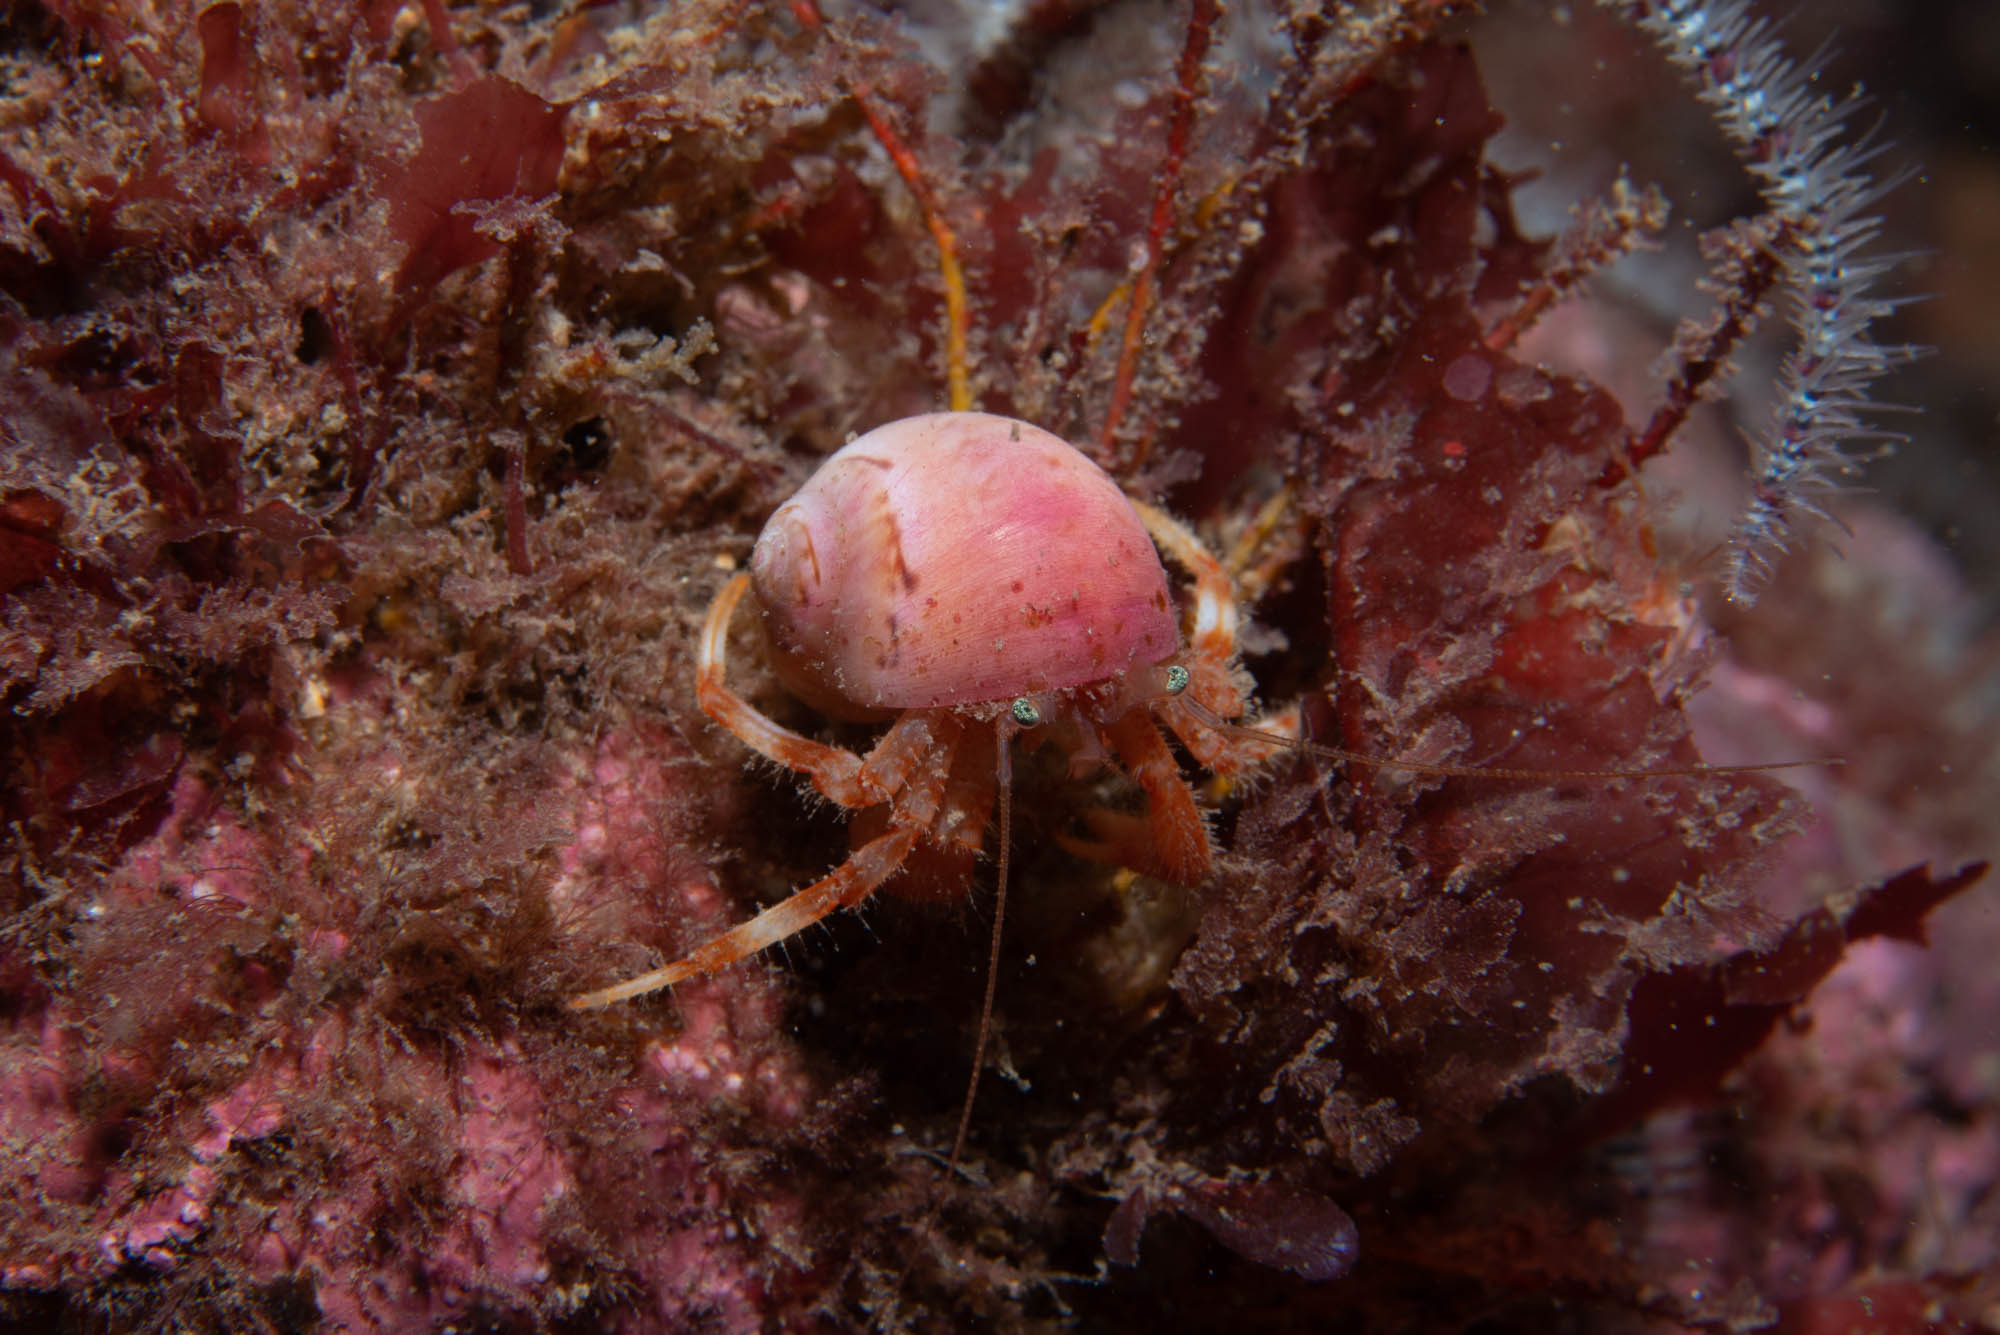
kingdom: Animalia
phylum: Arthropoda
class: Malacostraca
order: Decapoda
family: Paguridae
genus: Pagurus
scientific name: Pagurus pubescens
